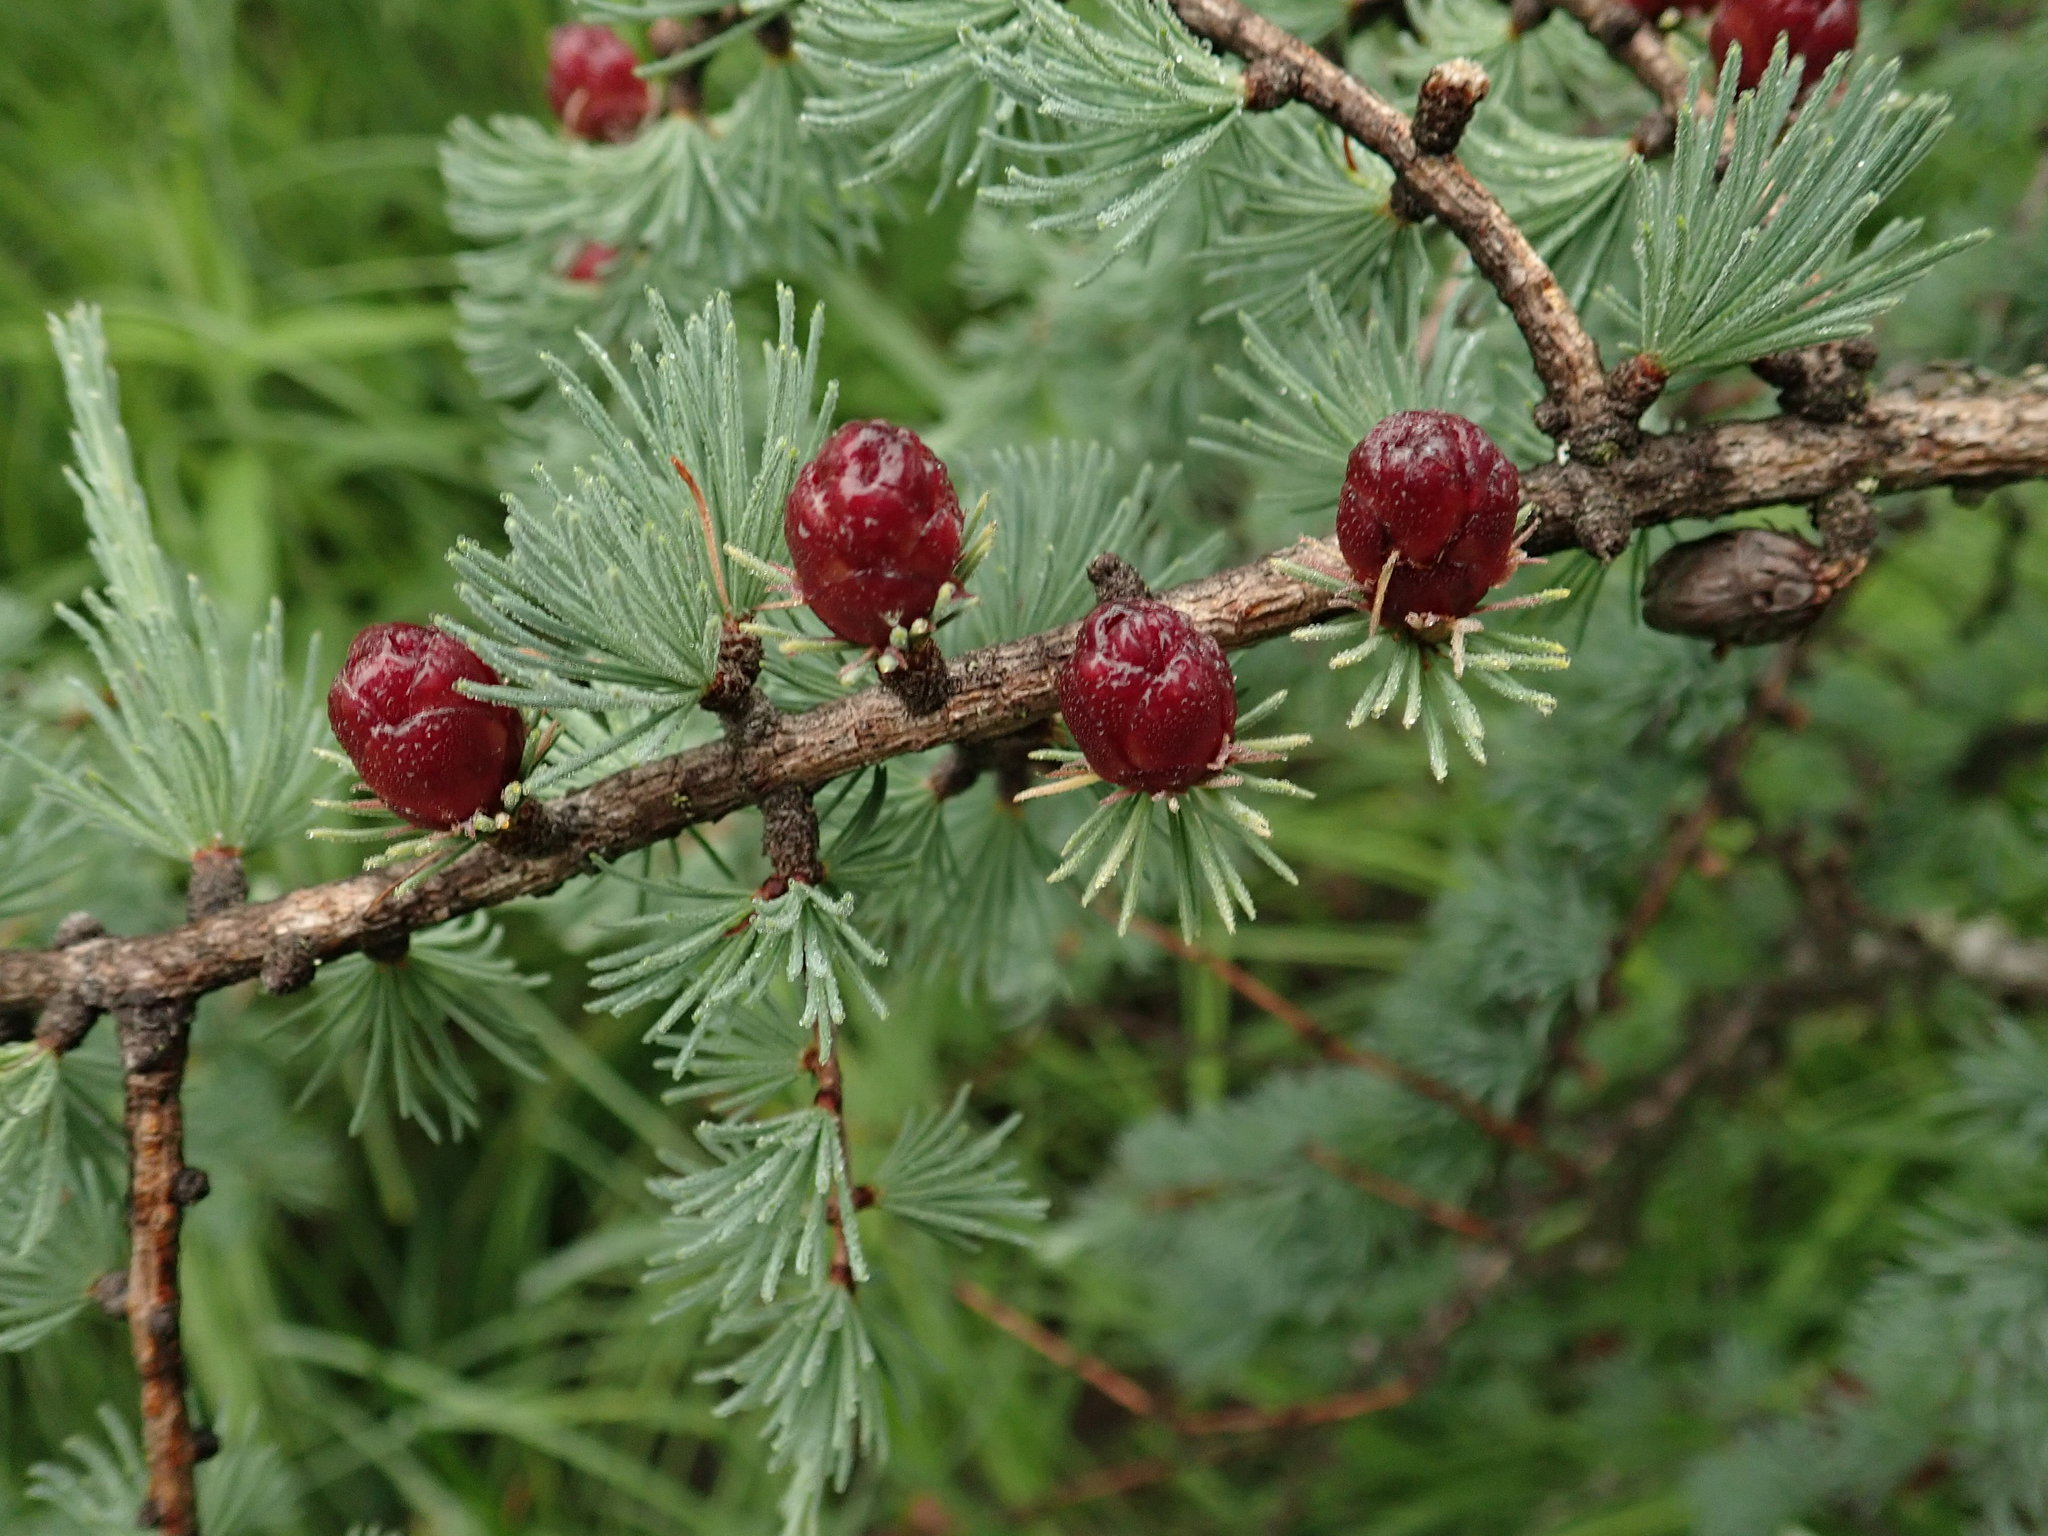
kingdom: Plantae
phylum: Tracheophyta
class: Pinopsida
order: Pinales
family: Pinaceae
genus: Larix
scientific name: Larix laricina
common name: American larch
